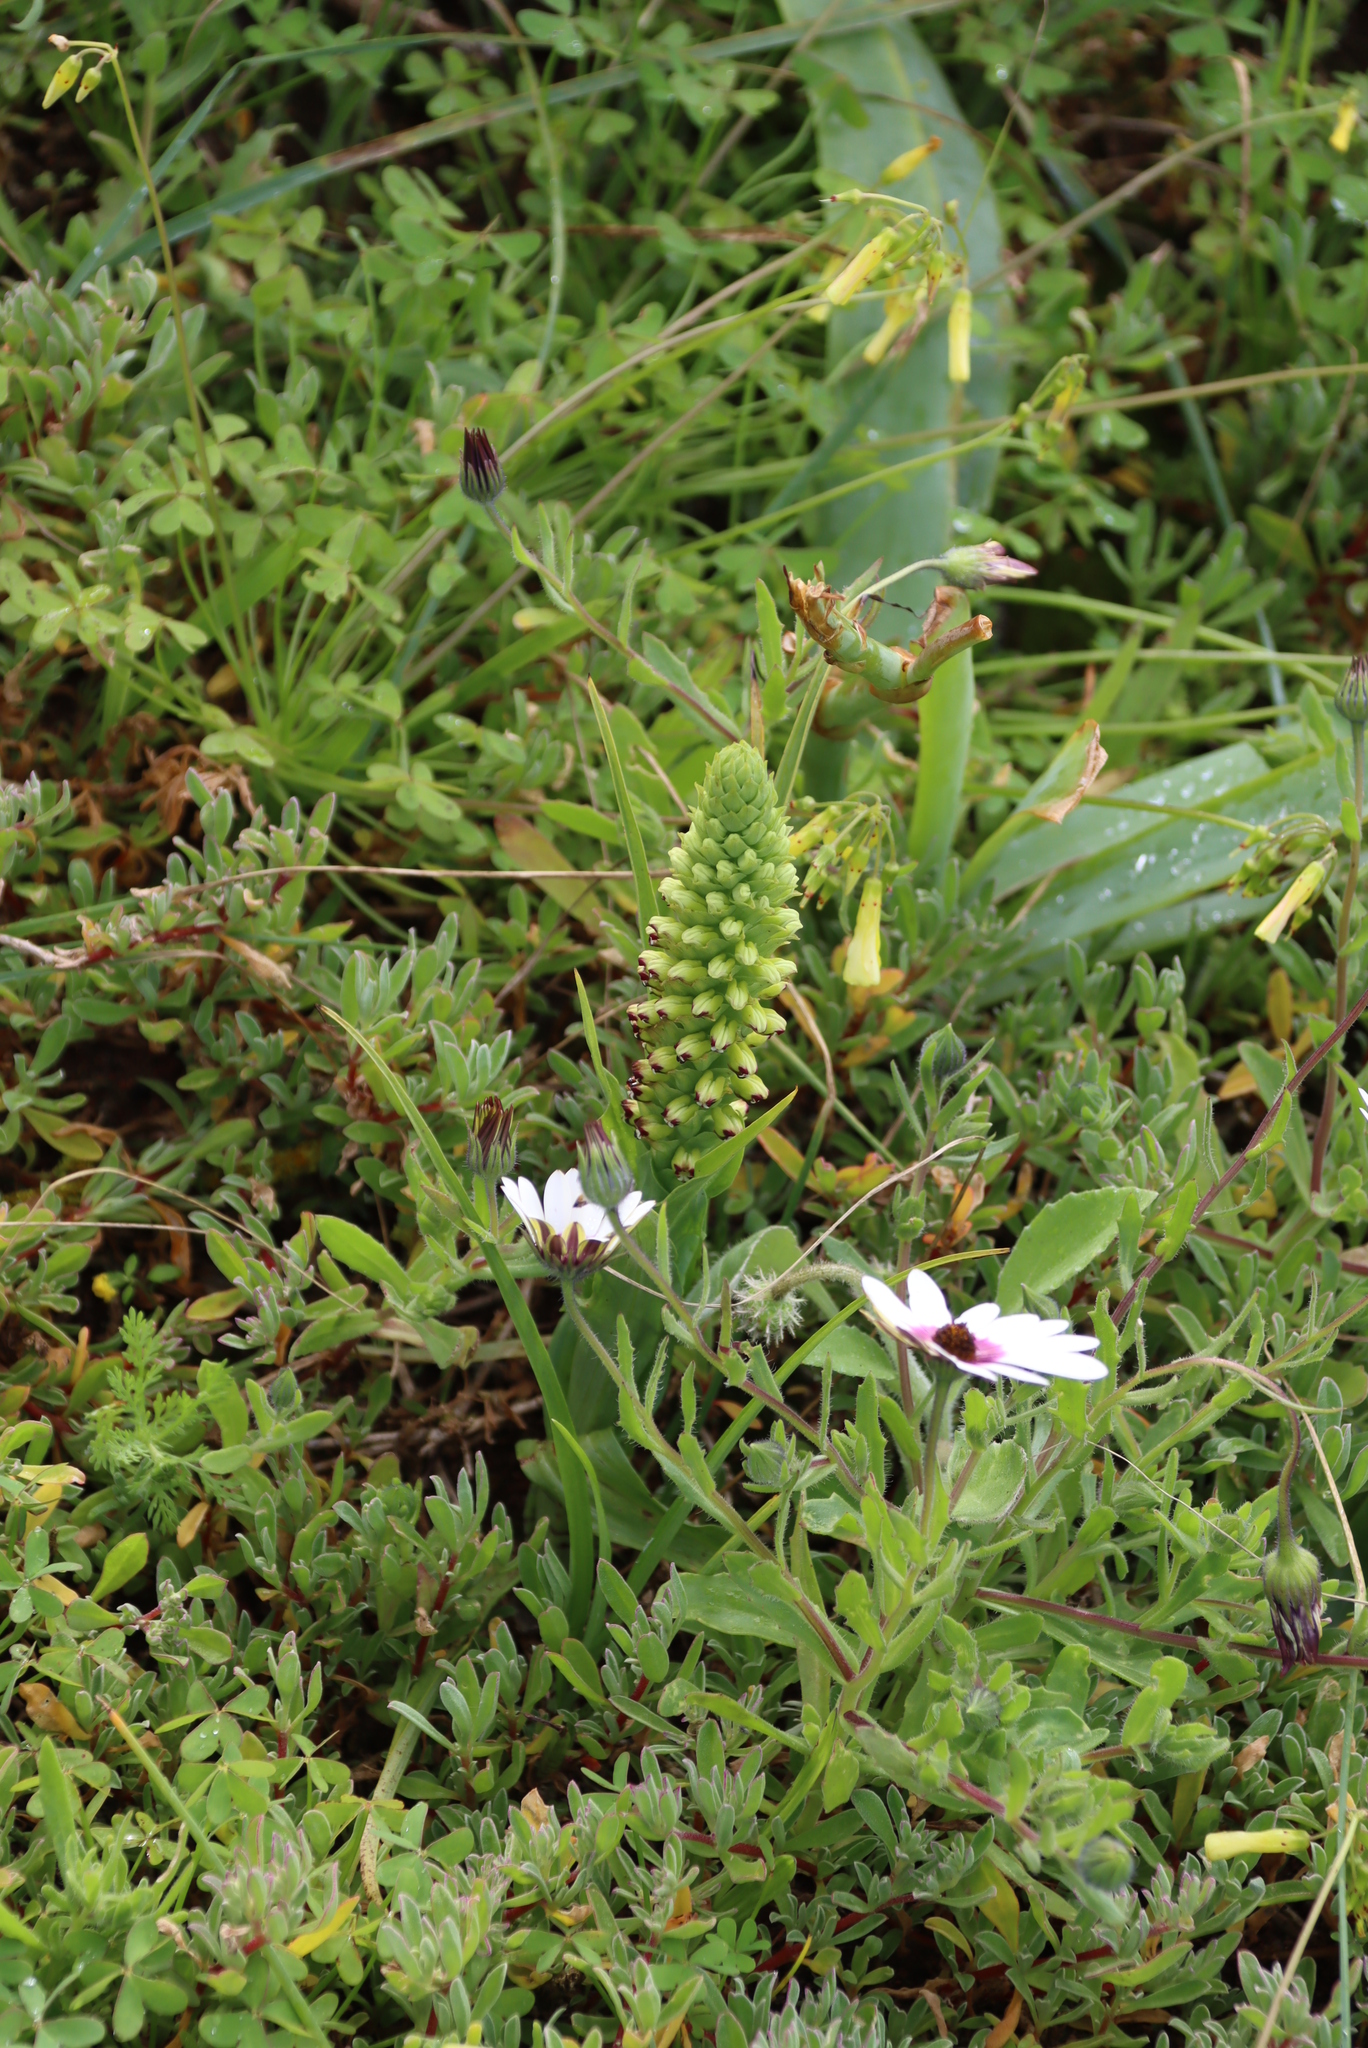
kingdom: Plantae
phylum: Tracheophyta
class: Liliopsida
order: Asparagales
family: Orchidaceae
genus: Corycium
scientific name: Corycium orobanchoides
